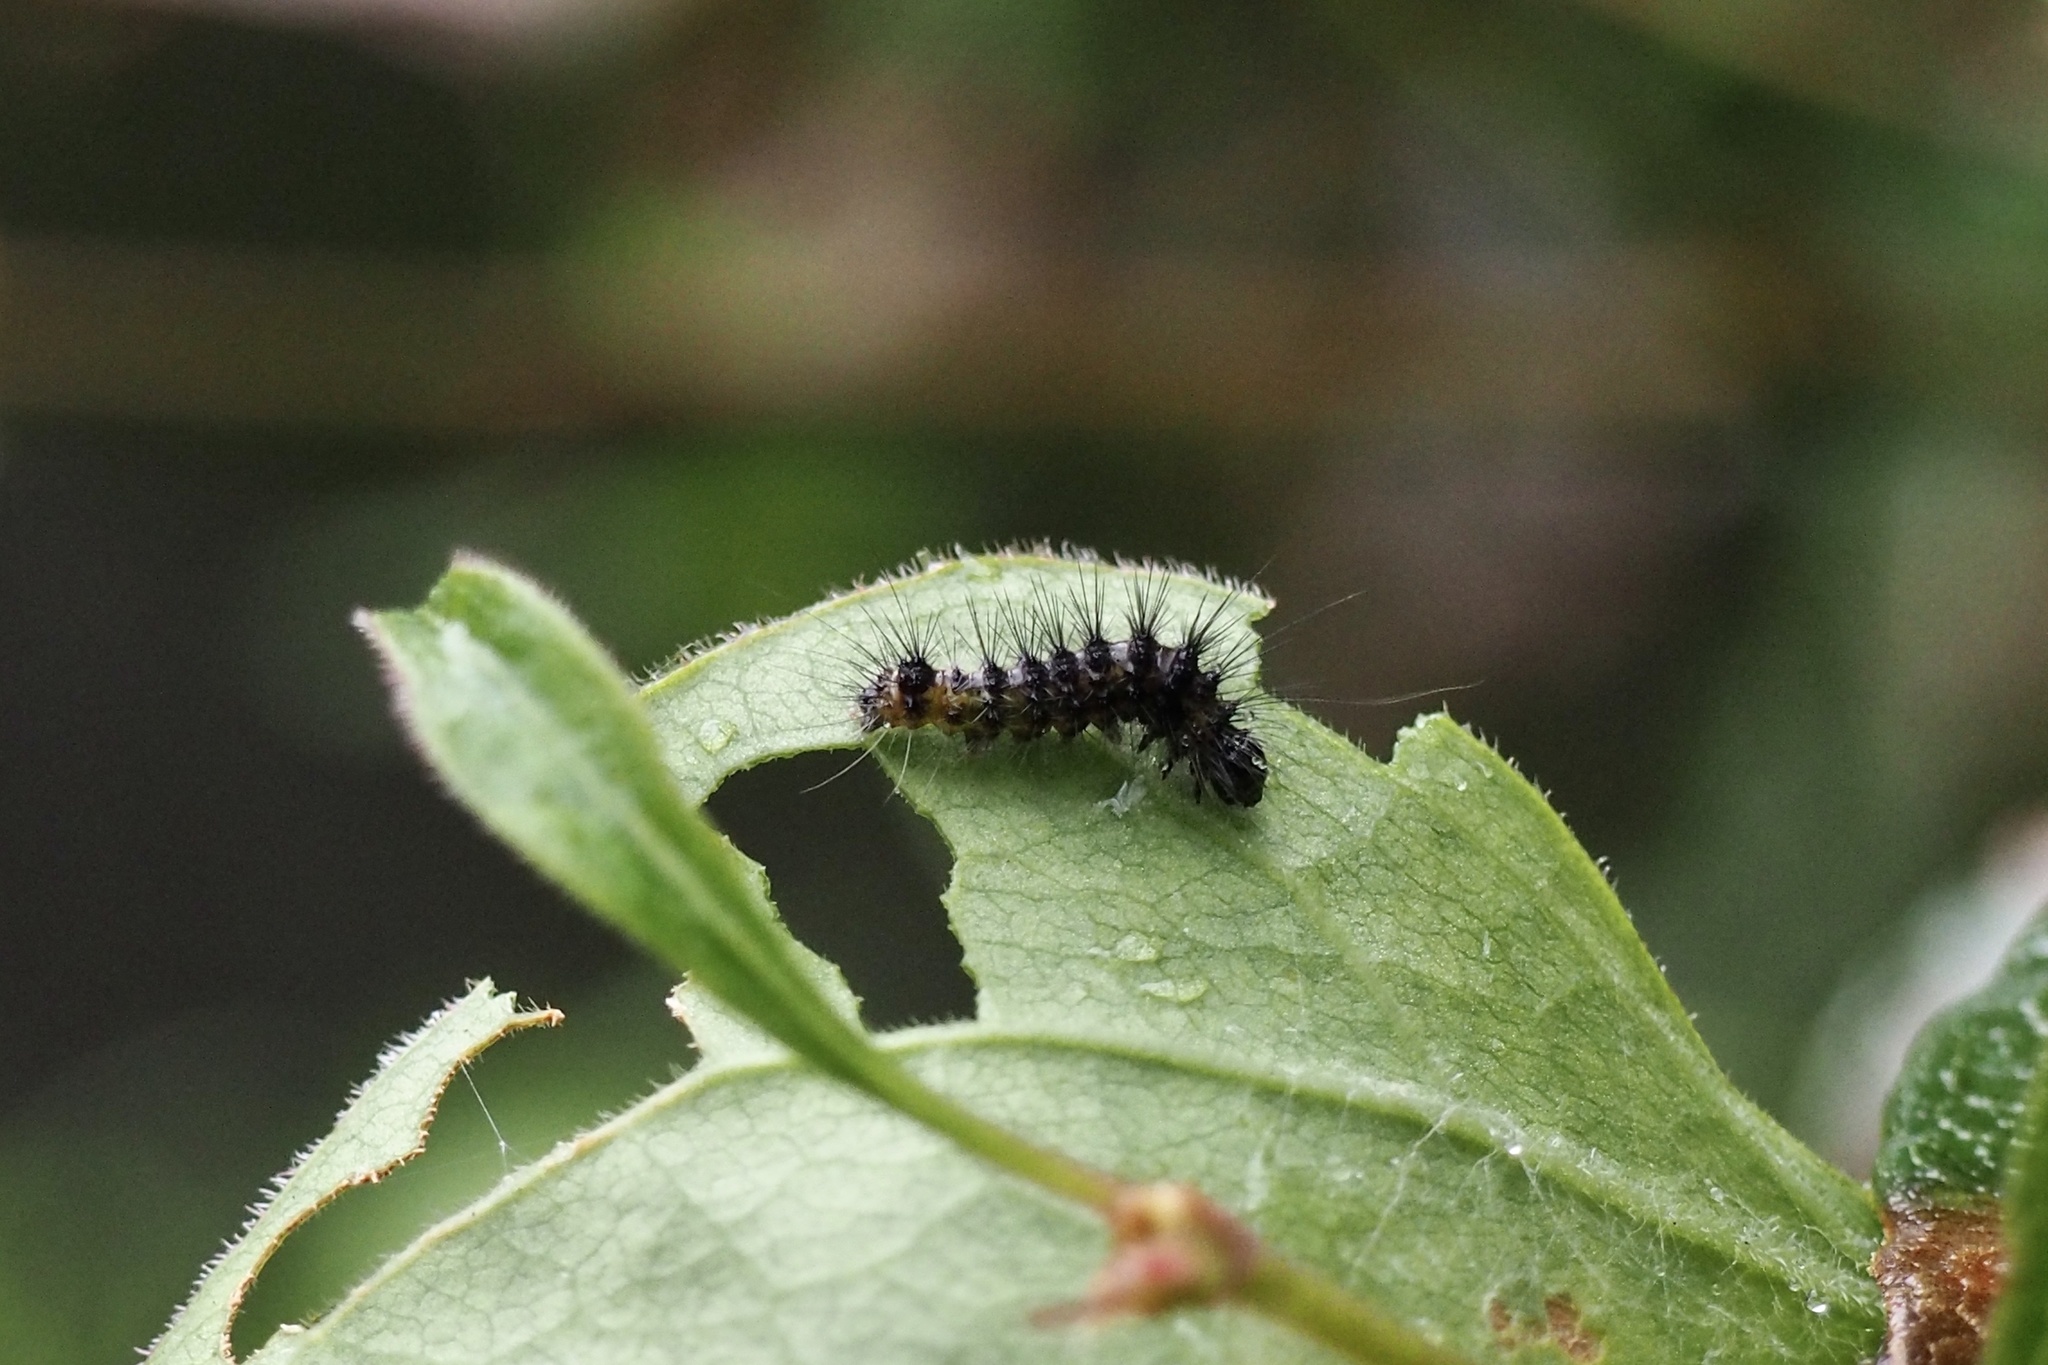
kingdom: Animalia
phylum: Arthropoda
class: Insecta
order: Lepidoptera
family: Noctuidae
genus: Acronicta
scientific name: Acronicta rumicis
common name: Knot grass
